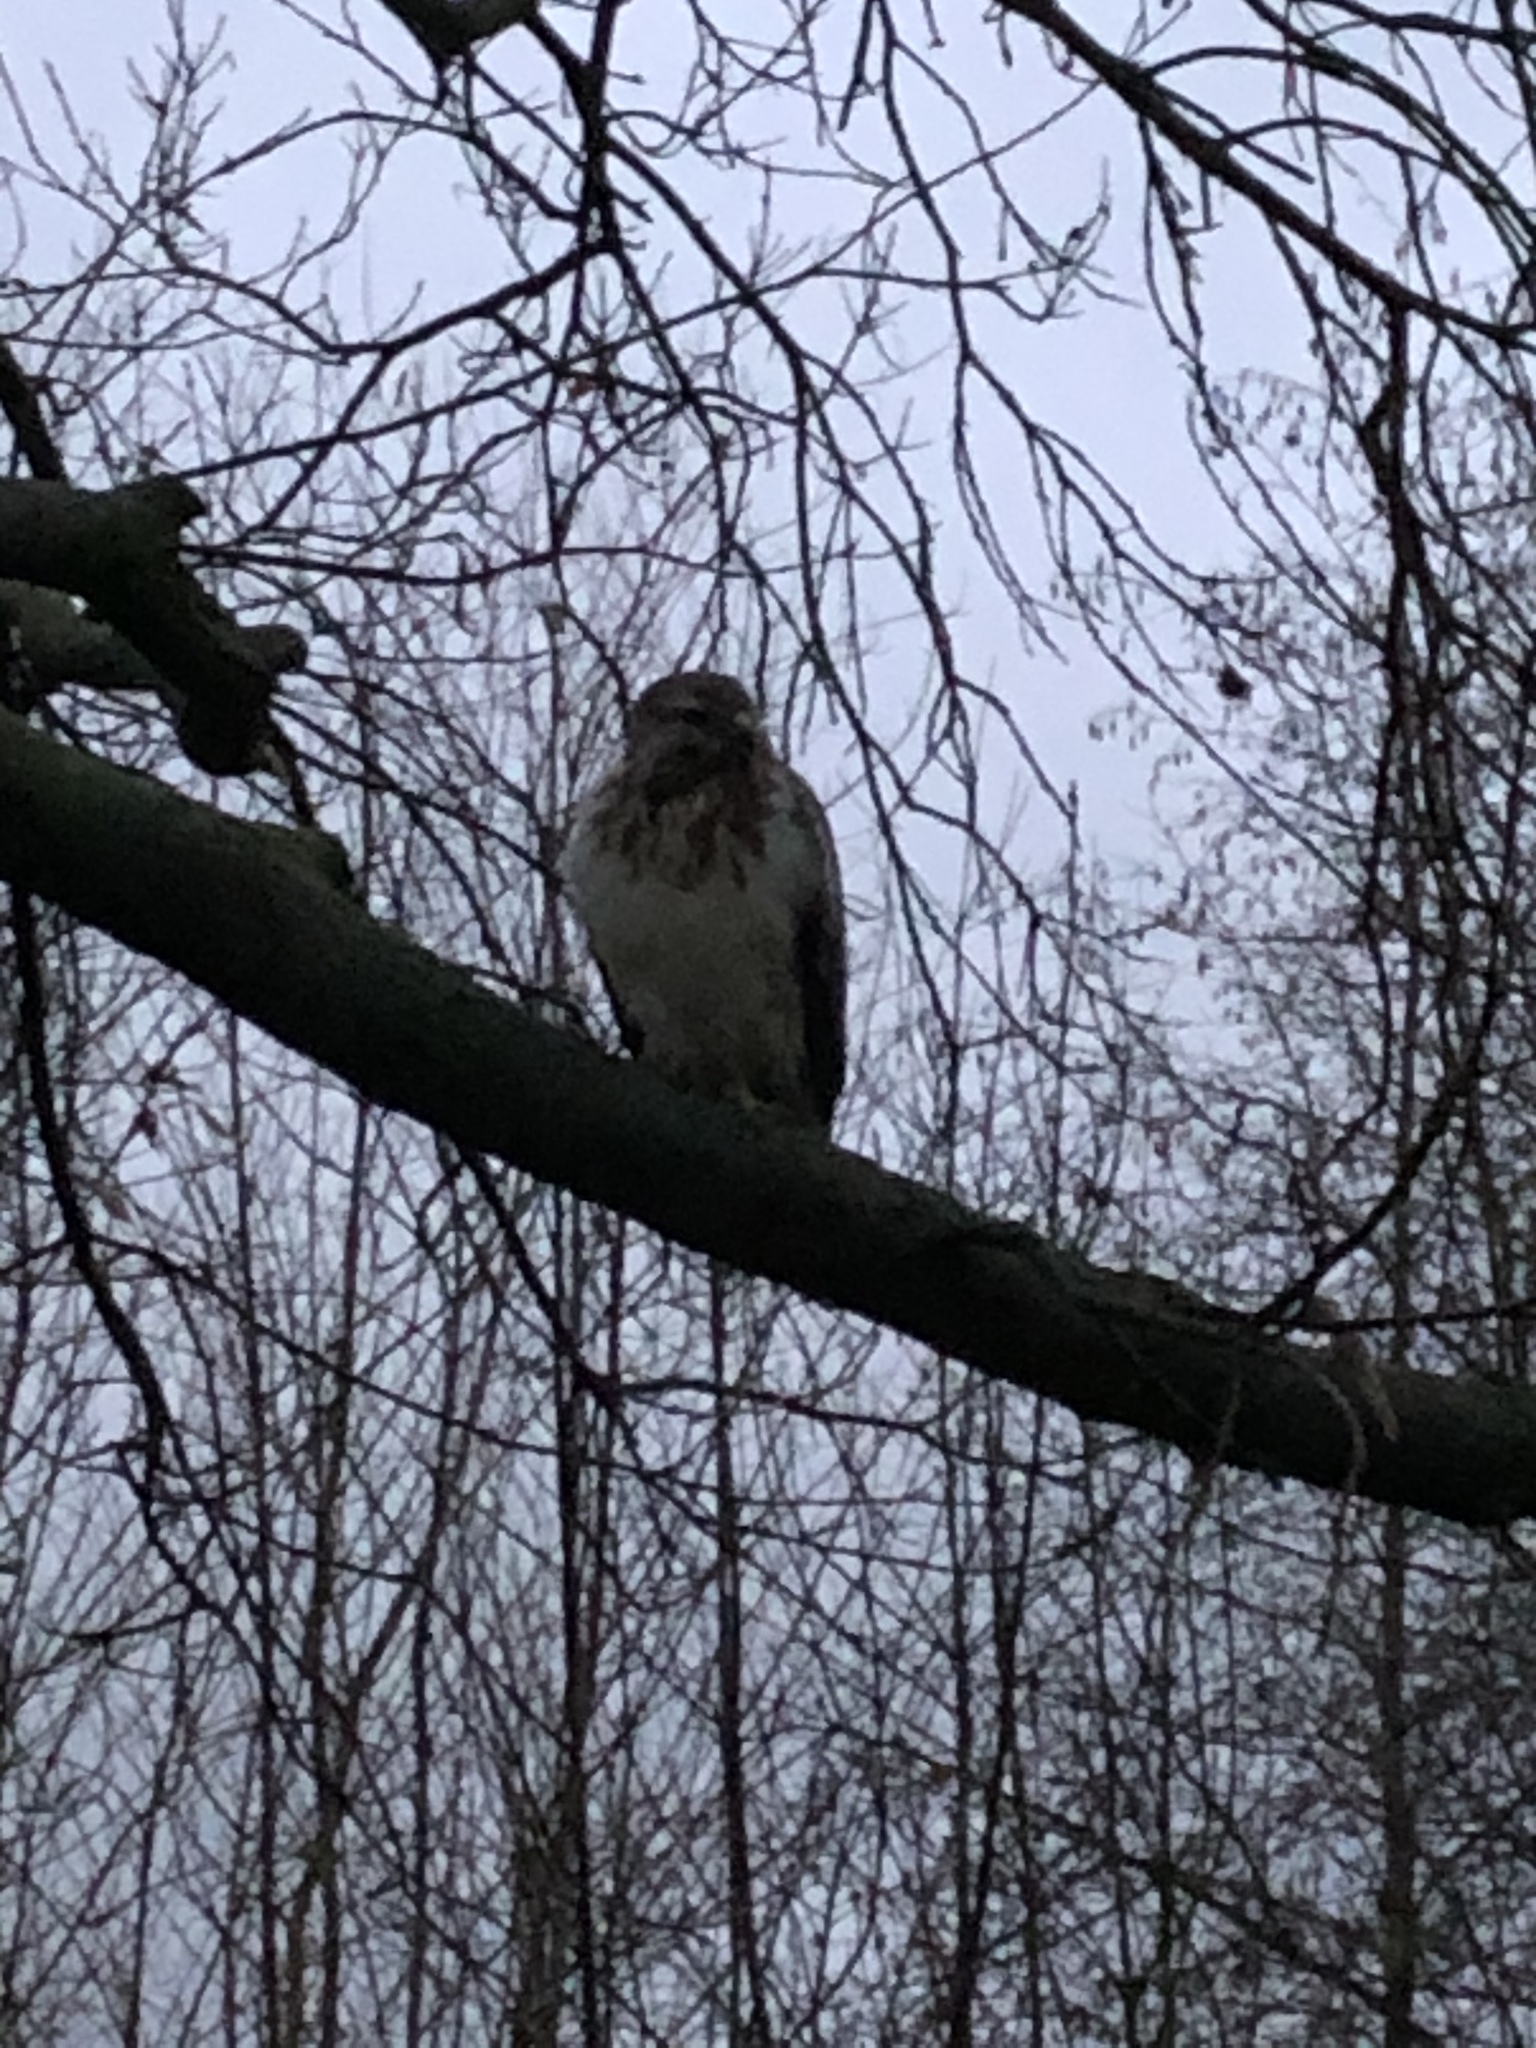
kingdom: Animalia
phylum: Chordata
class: Aves
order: Accipitriformes
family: Accipitridae
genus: Buteo
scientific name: Buteo buteo
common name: Common buzzard
